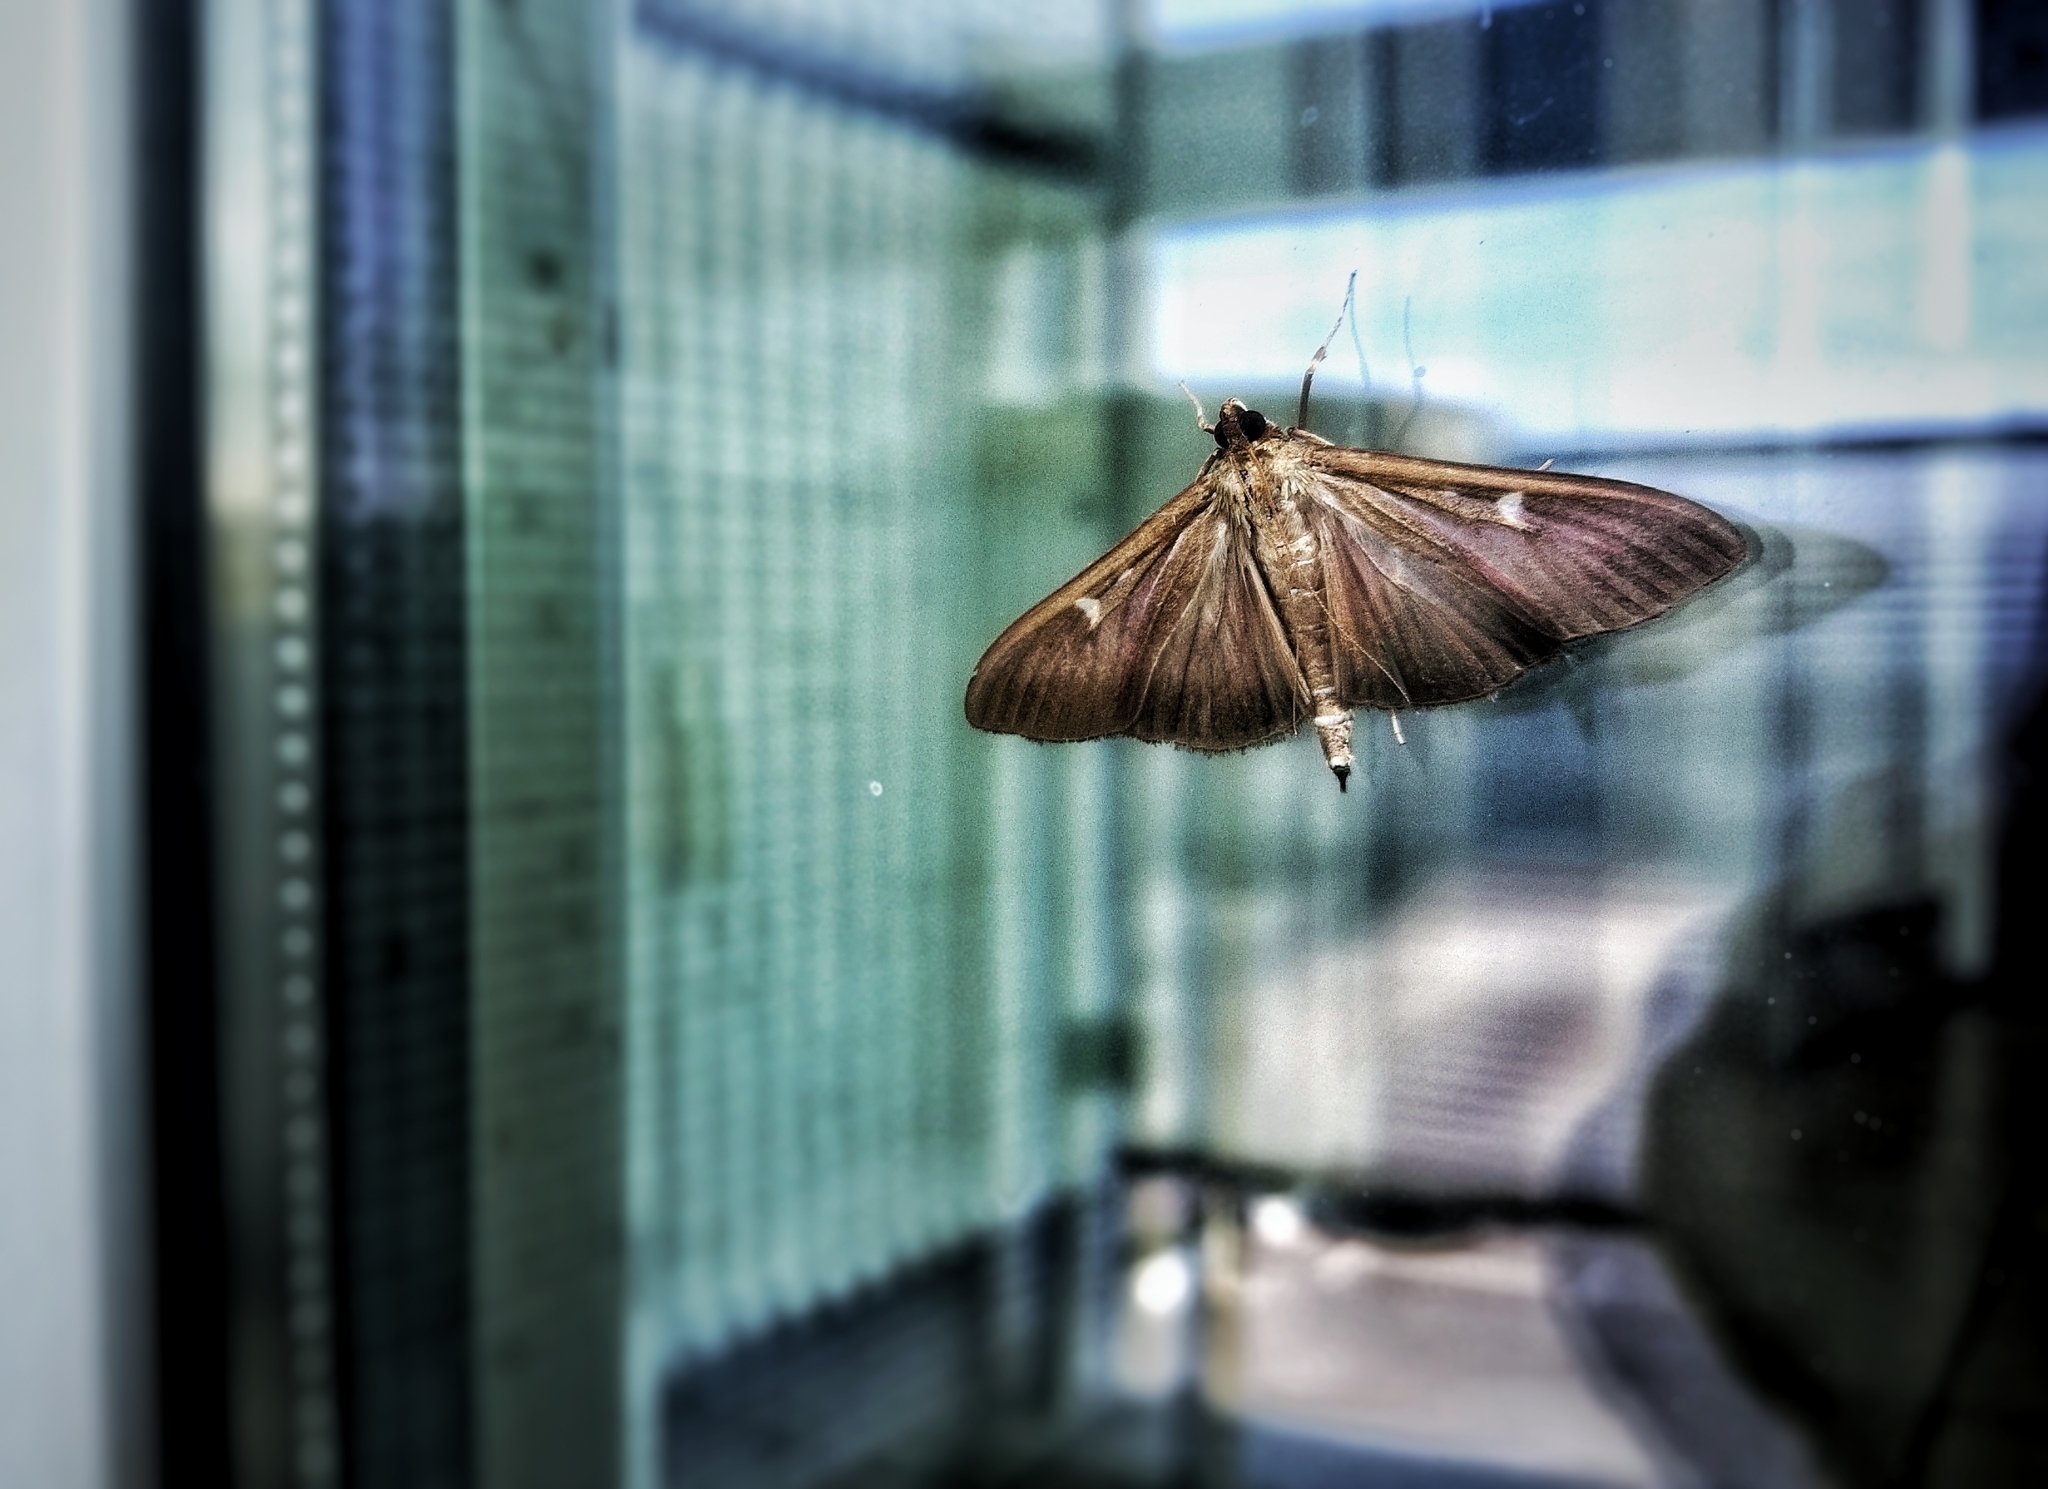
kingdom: Animalia
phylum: Arthropoda
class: Insecta
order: Lepidoptera
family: Crambidae
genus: Cydalima
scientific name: Cydalima perspectalis
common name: Box tree moth
